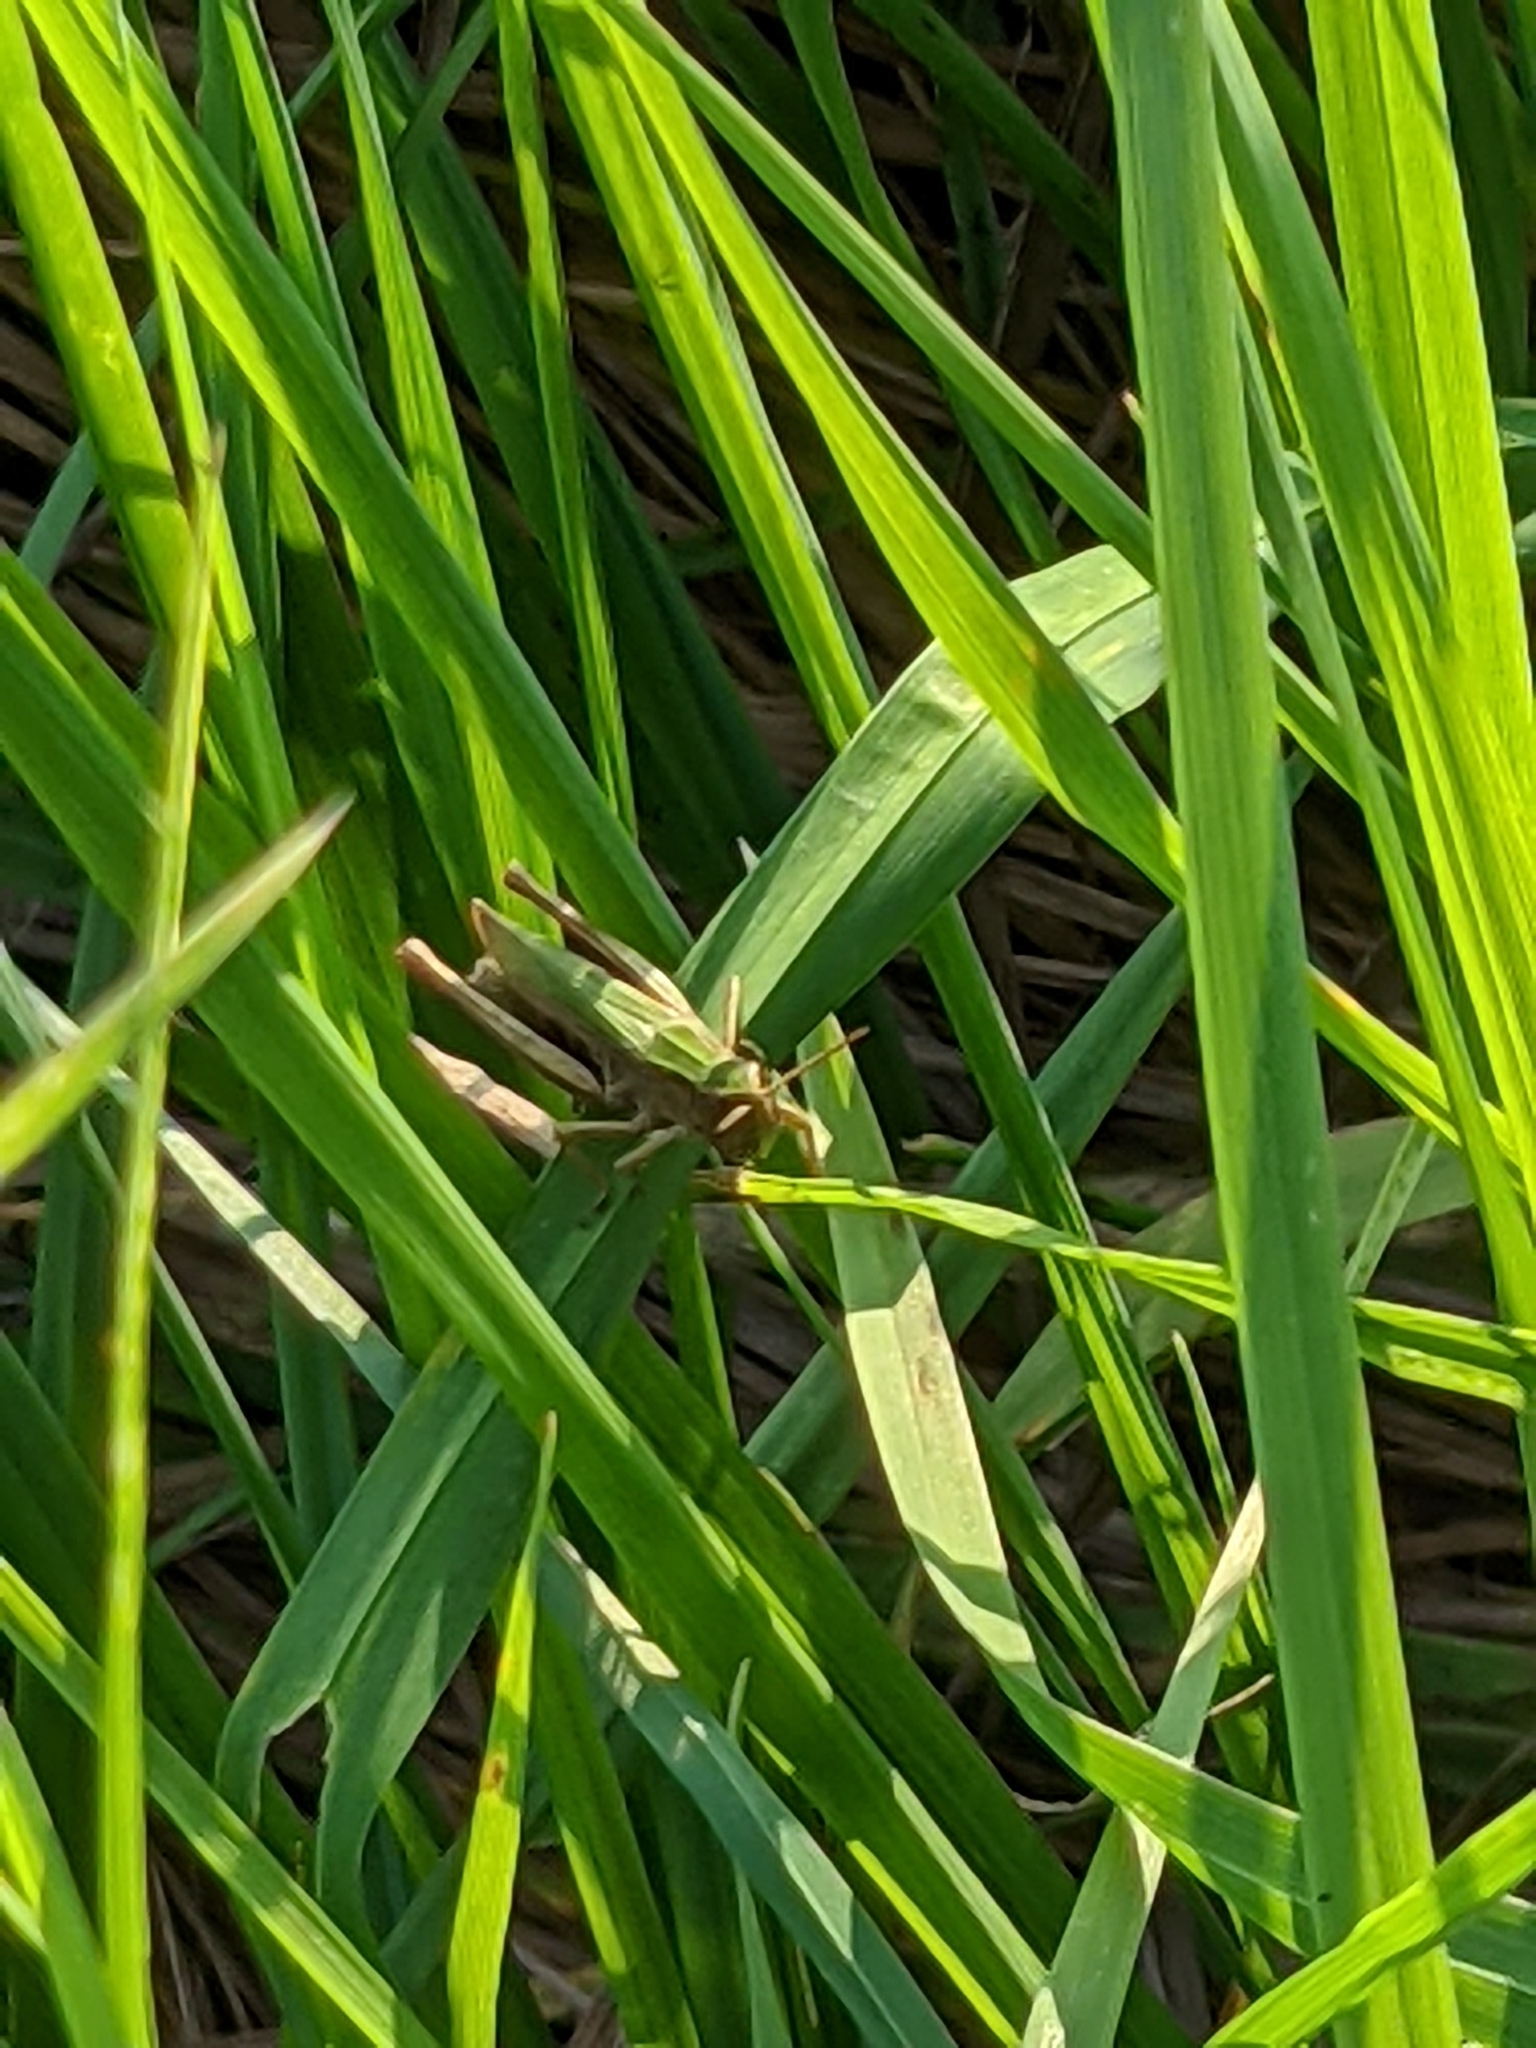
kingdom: Animalia
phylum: Arthropoda
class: Insecta
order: Orthoptera
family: Acrididae
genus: Chorthippus
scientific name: Chorthippus dorsatus
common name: Steppe grasshopper
